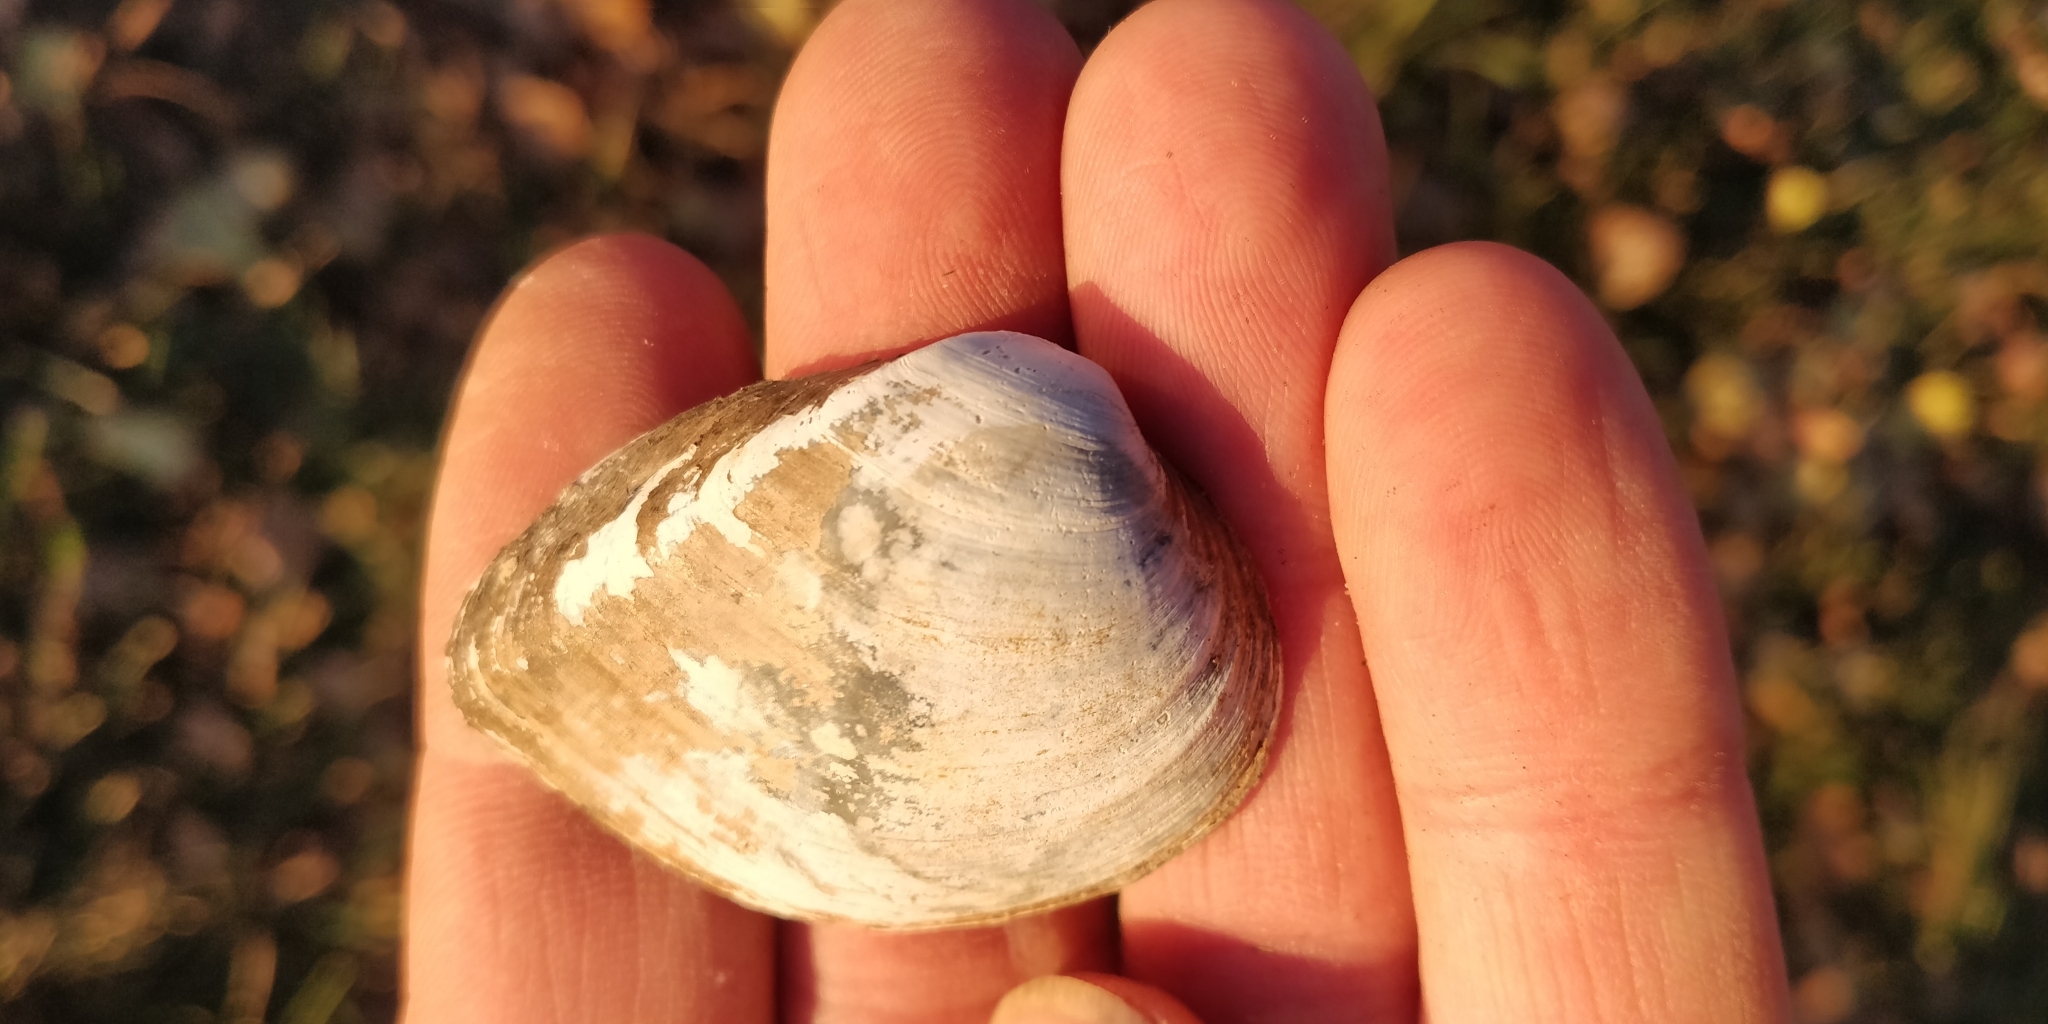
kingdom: Animalia
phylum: Mollusca
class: Bivalvia
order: Unionida
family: Unionidae
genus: Truncilla
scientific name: Truncilla truncata
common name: Deertoe
